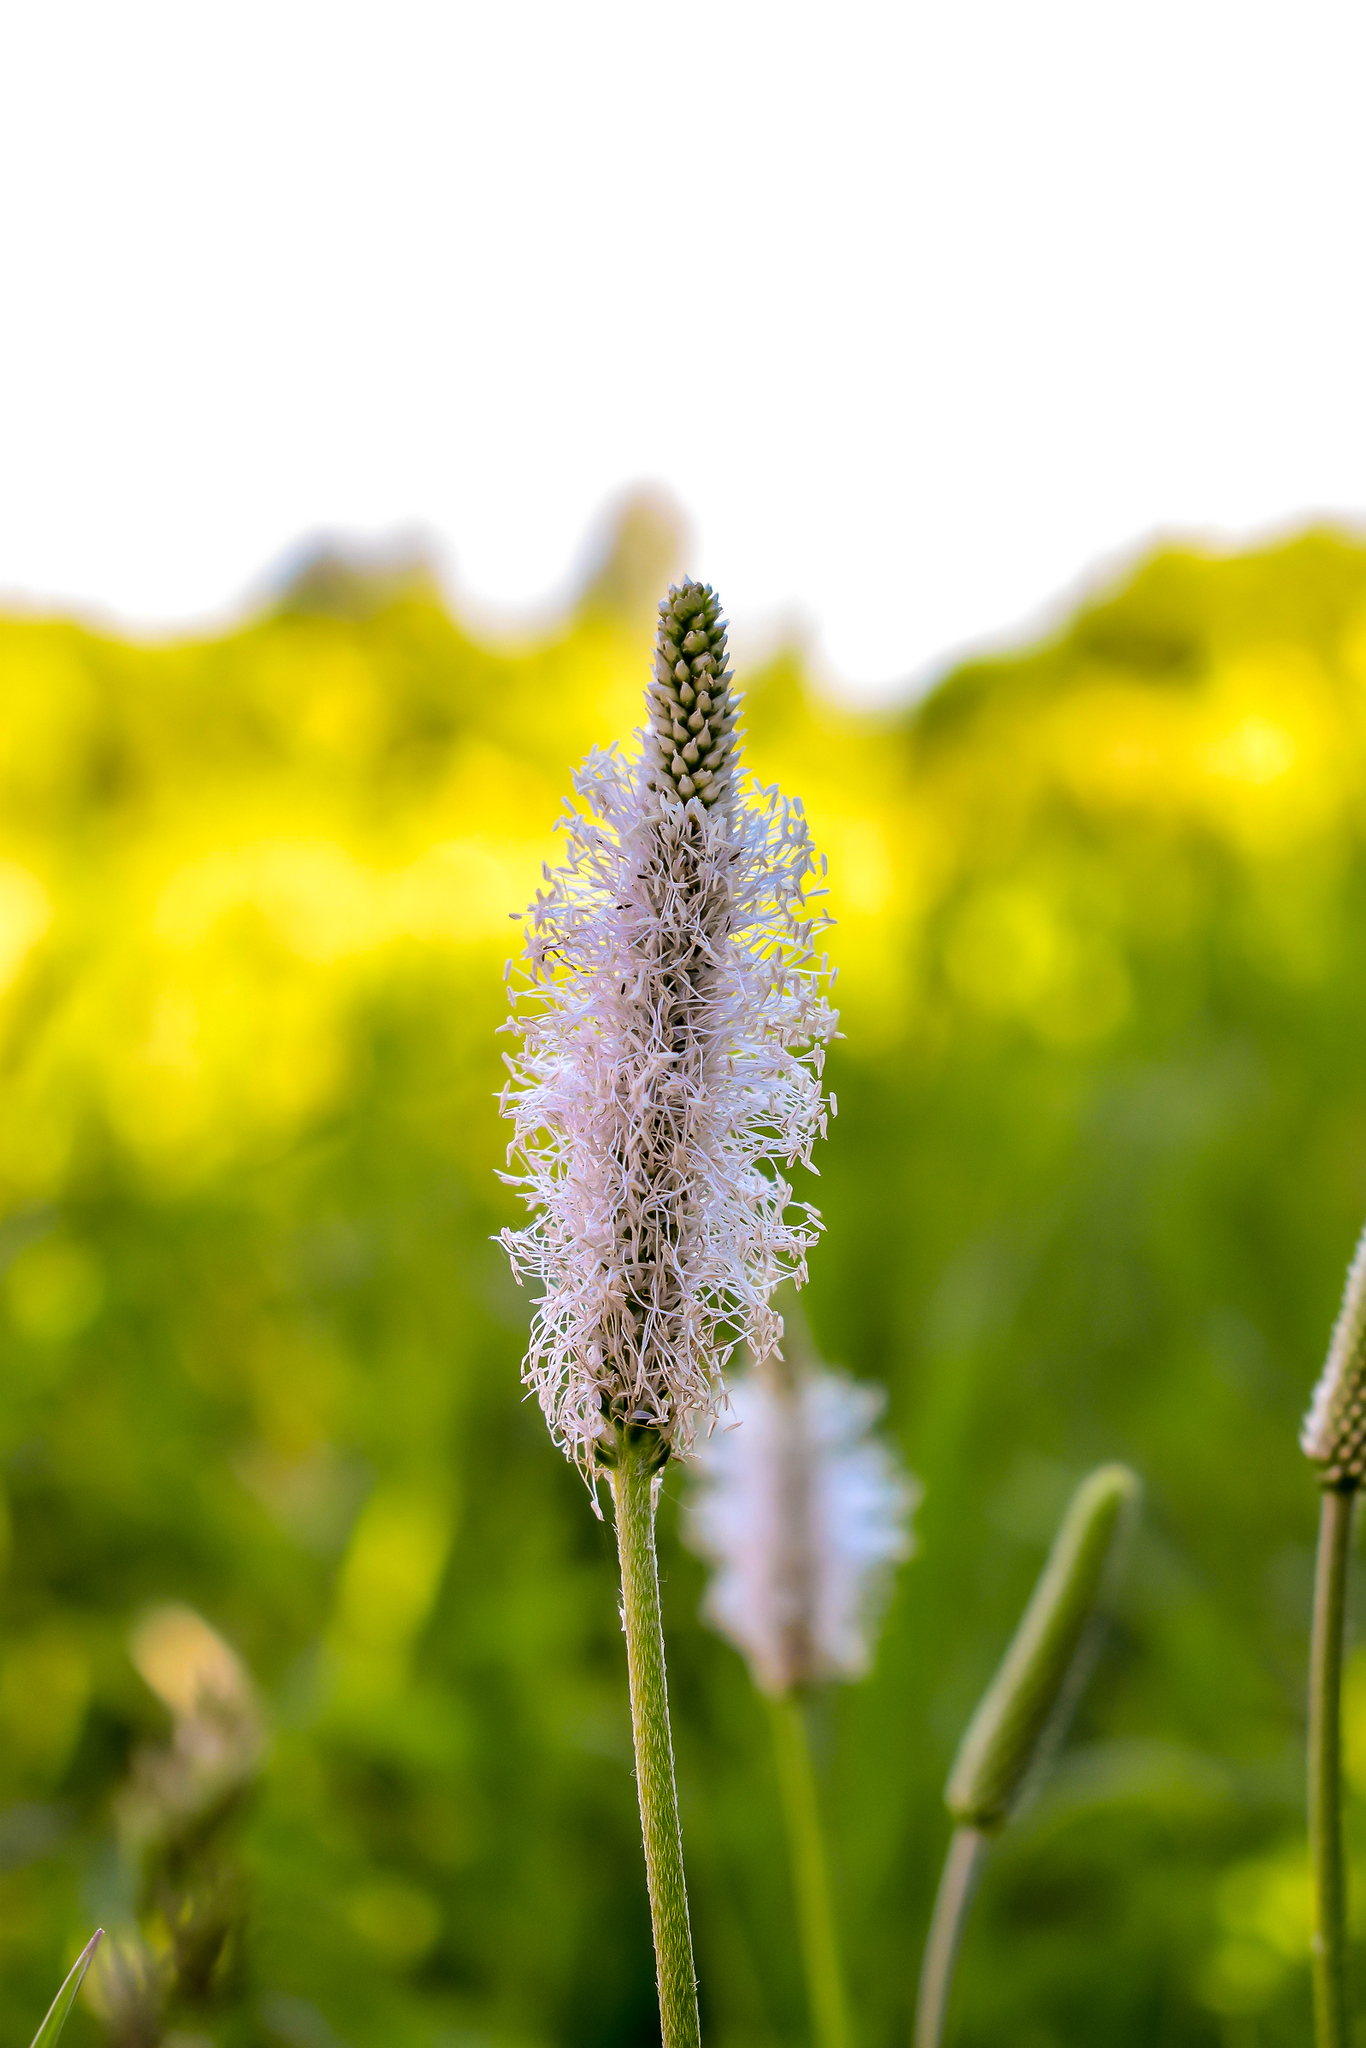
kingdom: Plantae
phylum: Tracheophyta
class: Magnoliopsida
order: Lamiales
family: Plantaginaceae
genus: Plantago
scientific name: Plantago media
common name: Hoary plantain
